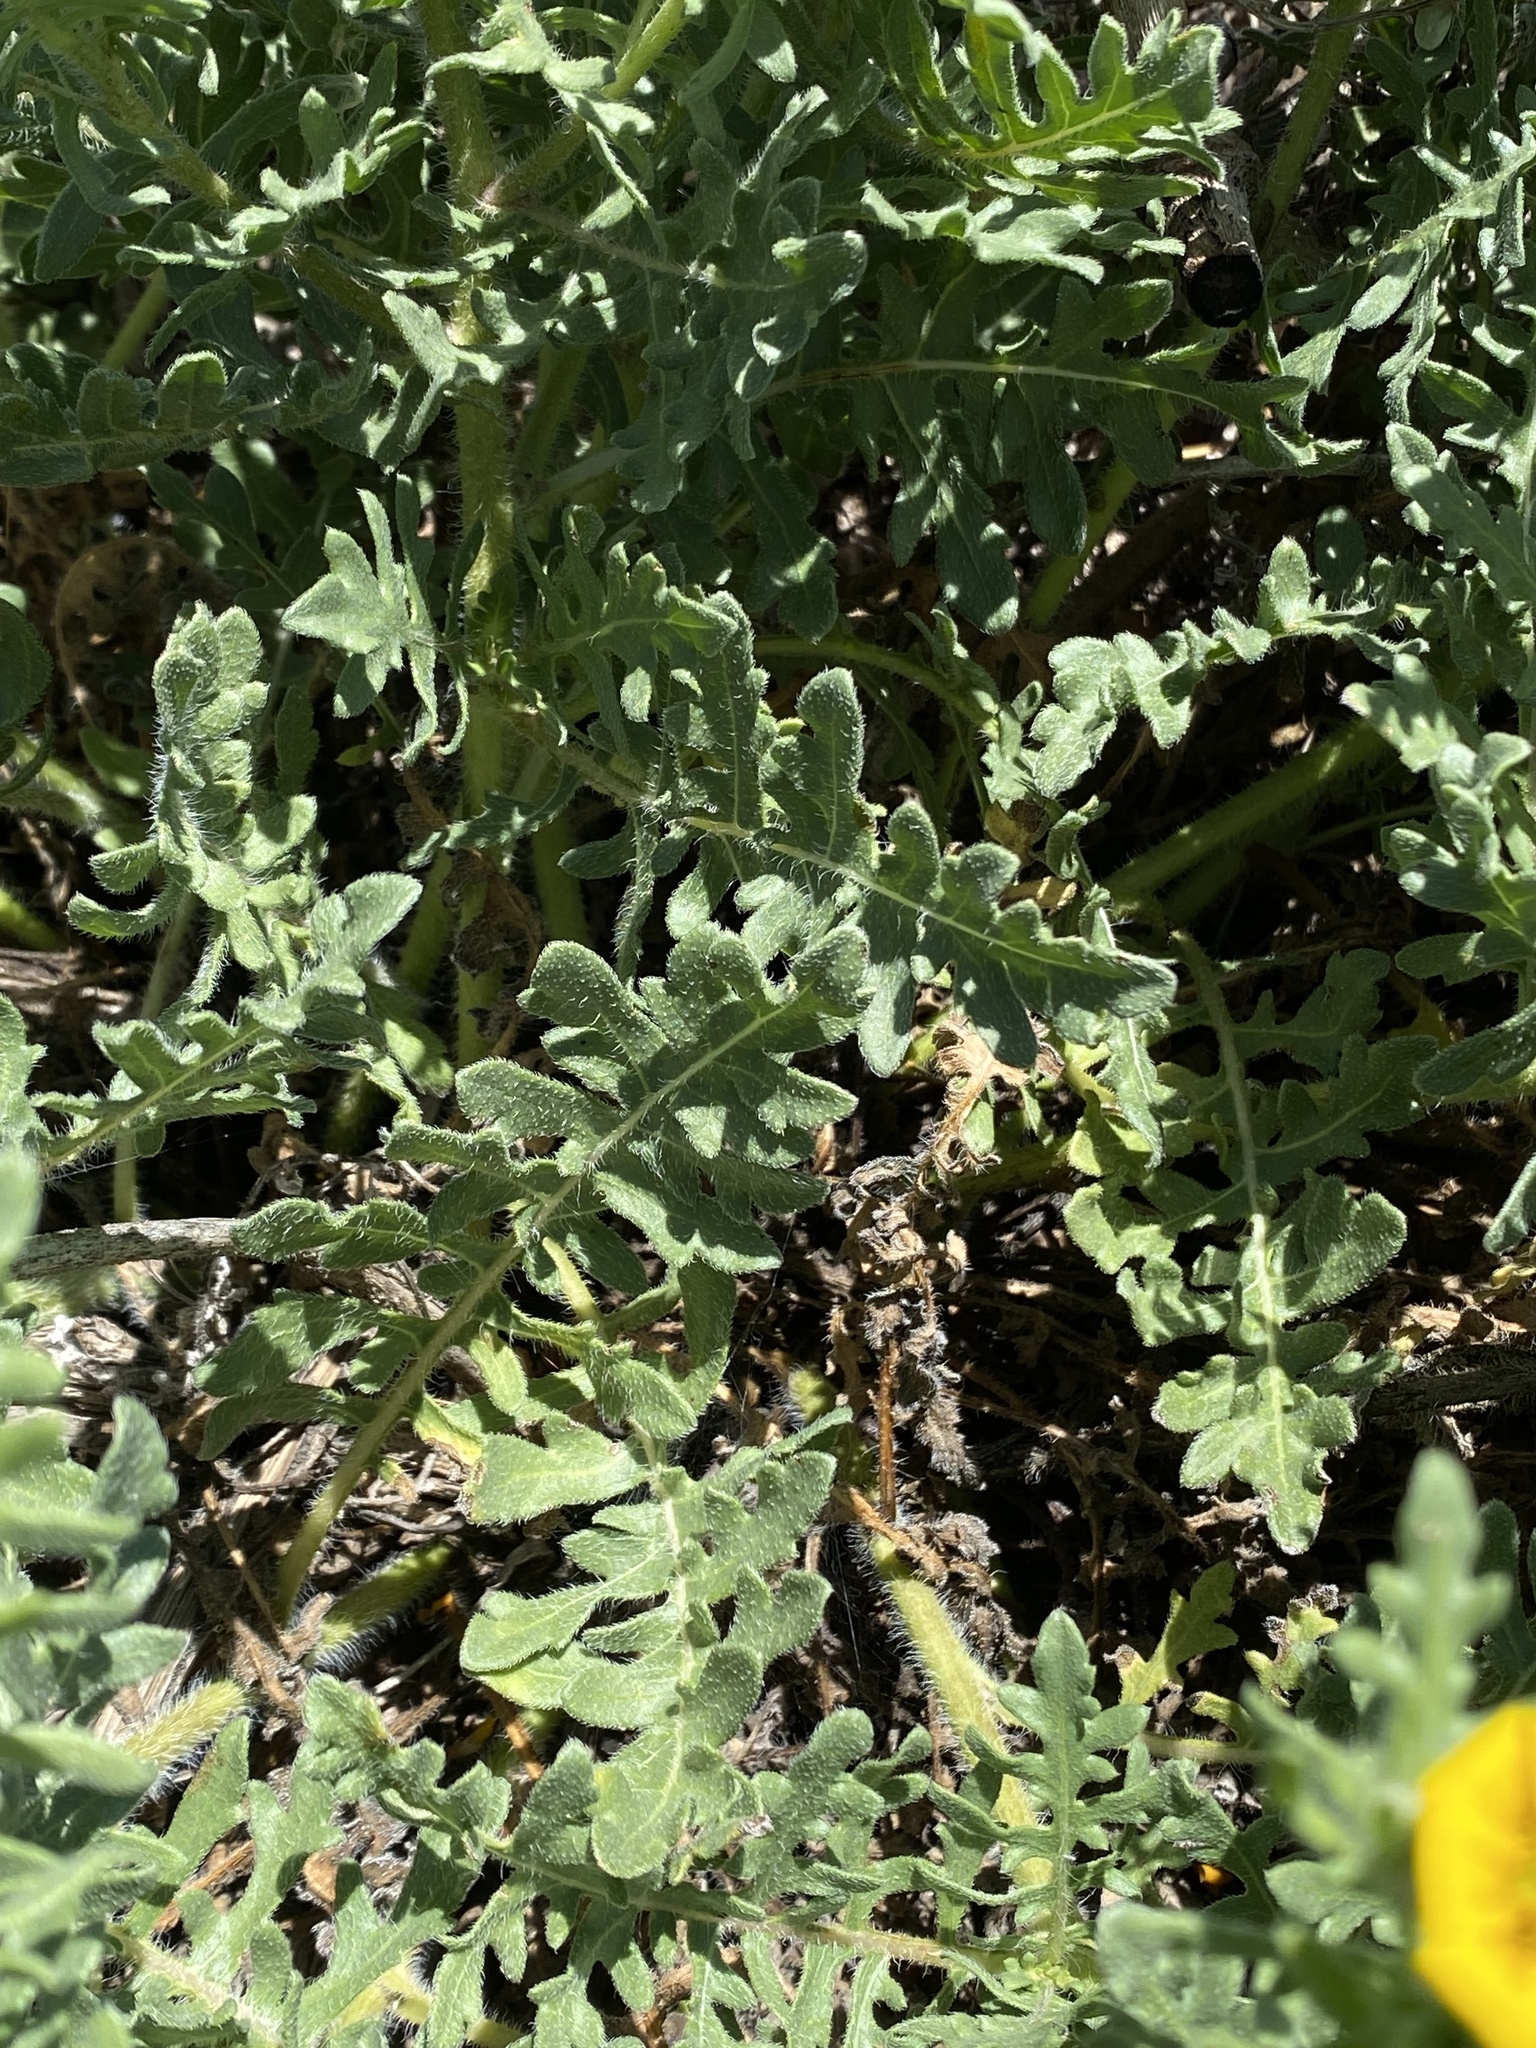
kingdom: Plantae
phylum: Tracheophyta
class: Magnoliopsida
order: Asterales
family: Asteraceae
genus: Engelmannia
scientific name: Engelmannia peristenia
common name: Engelmann's daisy
